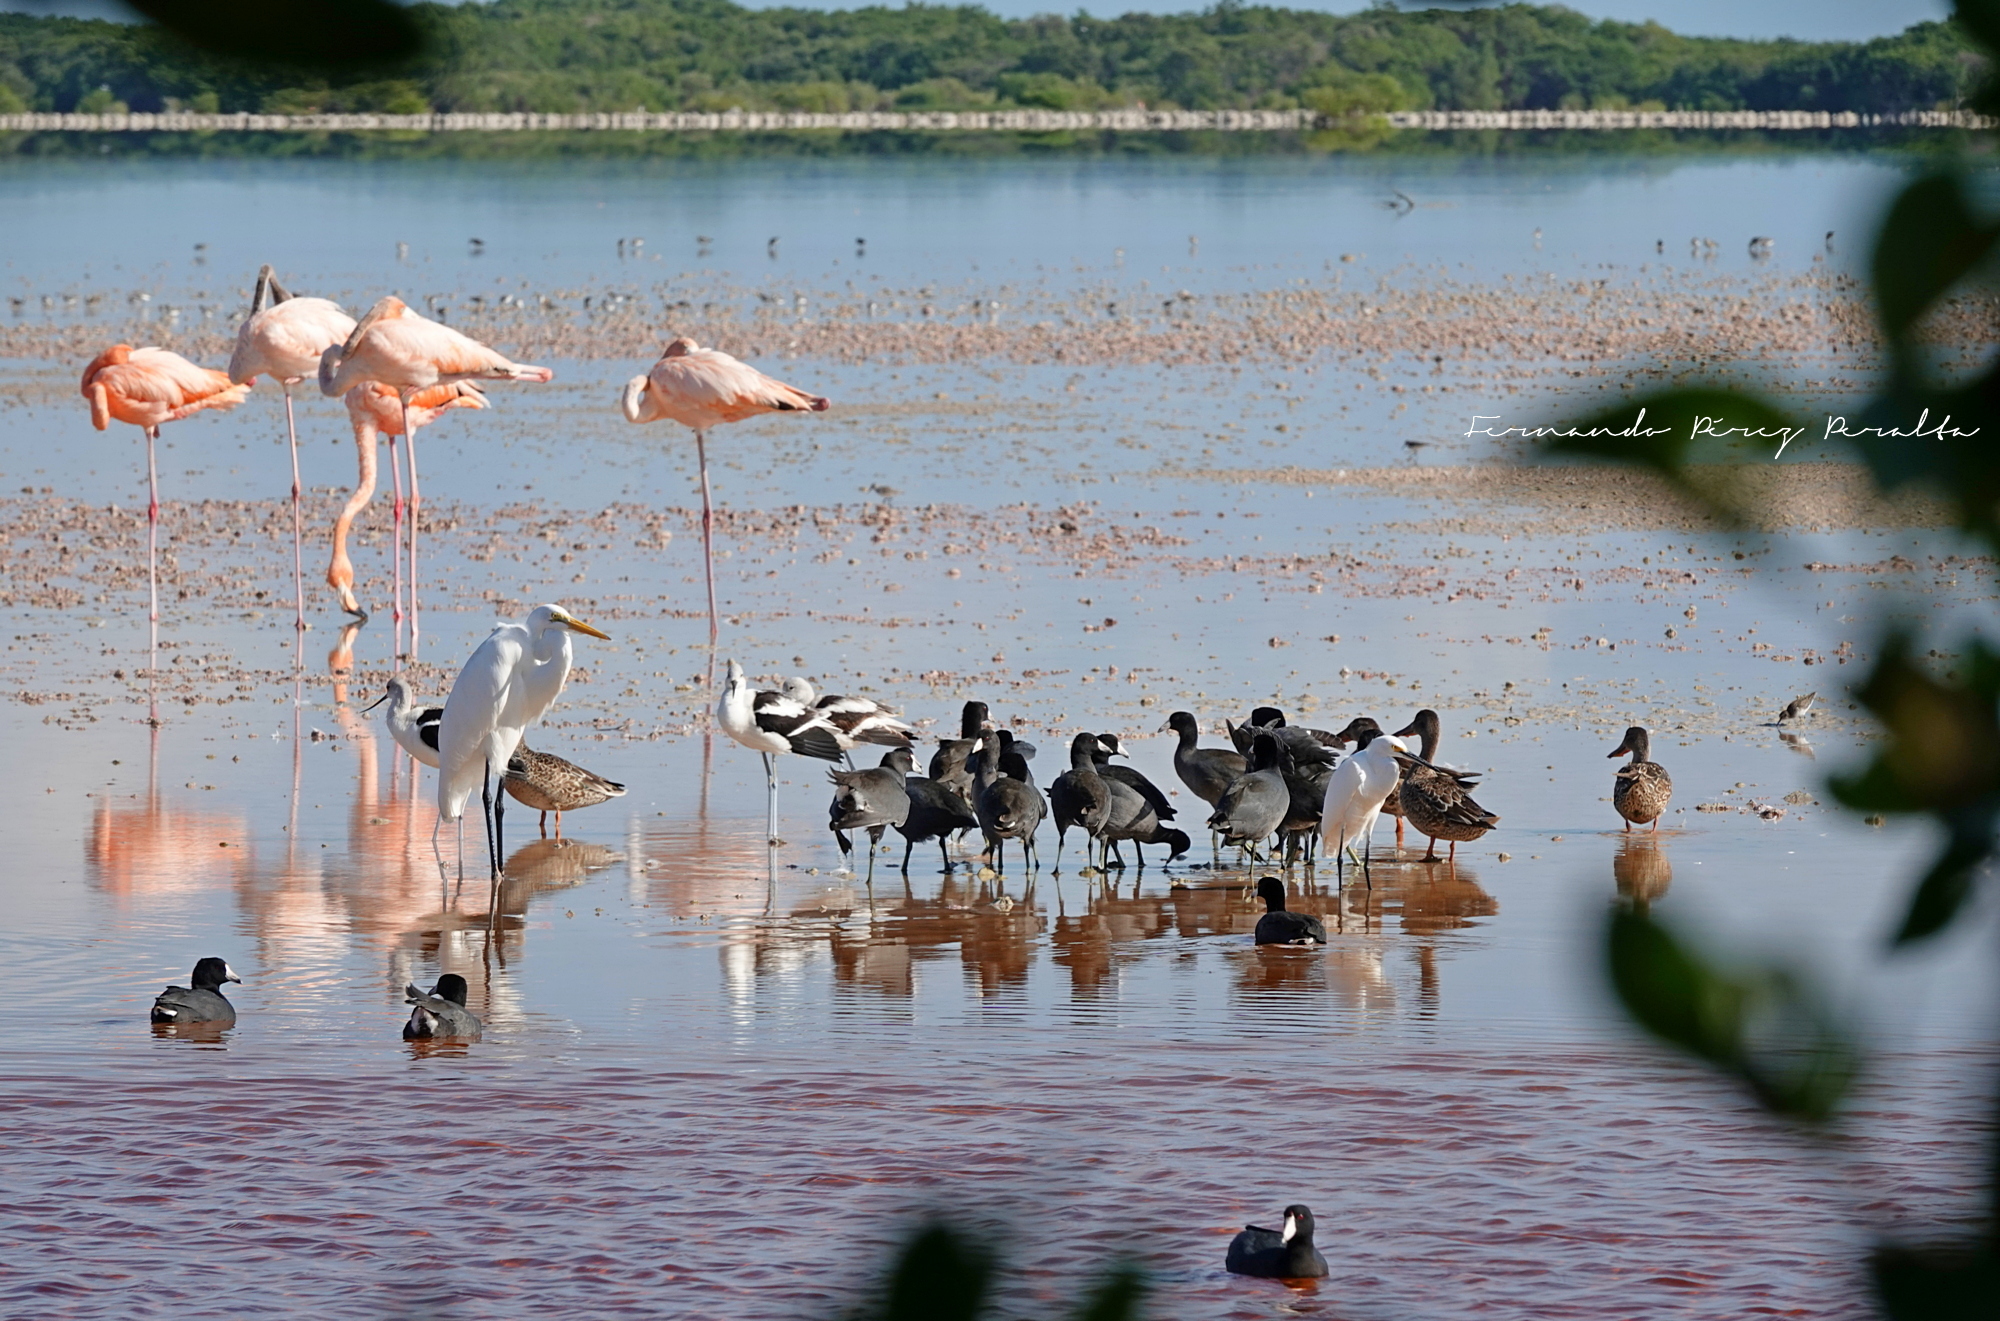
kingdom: Animalia
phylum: Chordata
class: Aves
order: Pelecaniformes
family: Ardeidae
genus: Ardea
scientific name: Ardea alba
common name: Great egret
